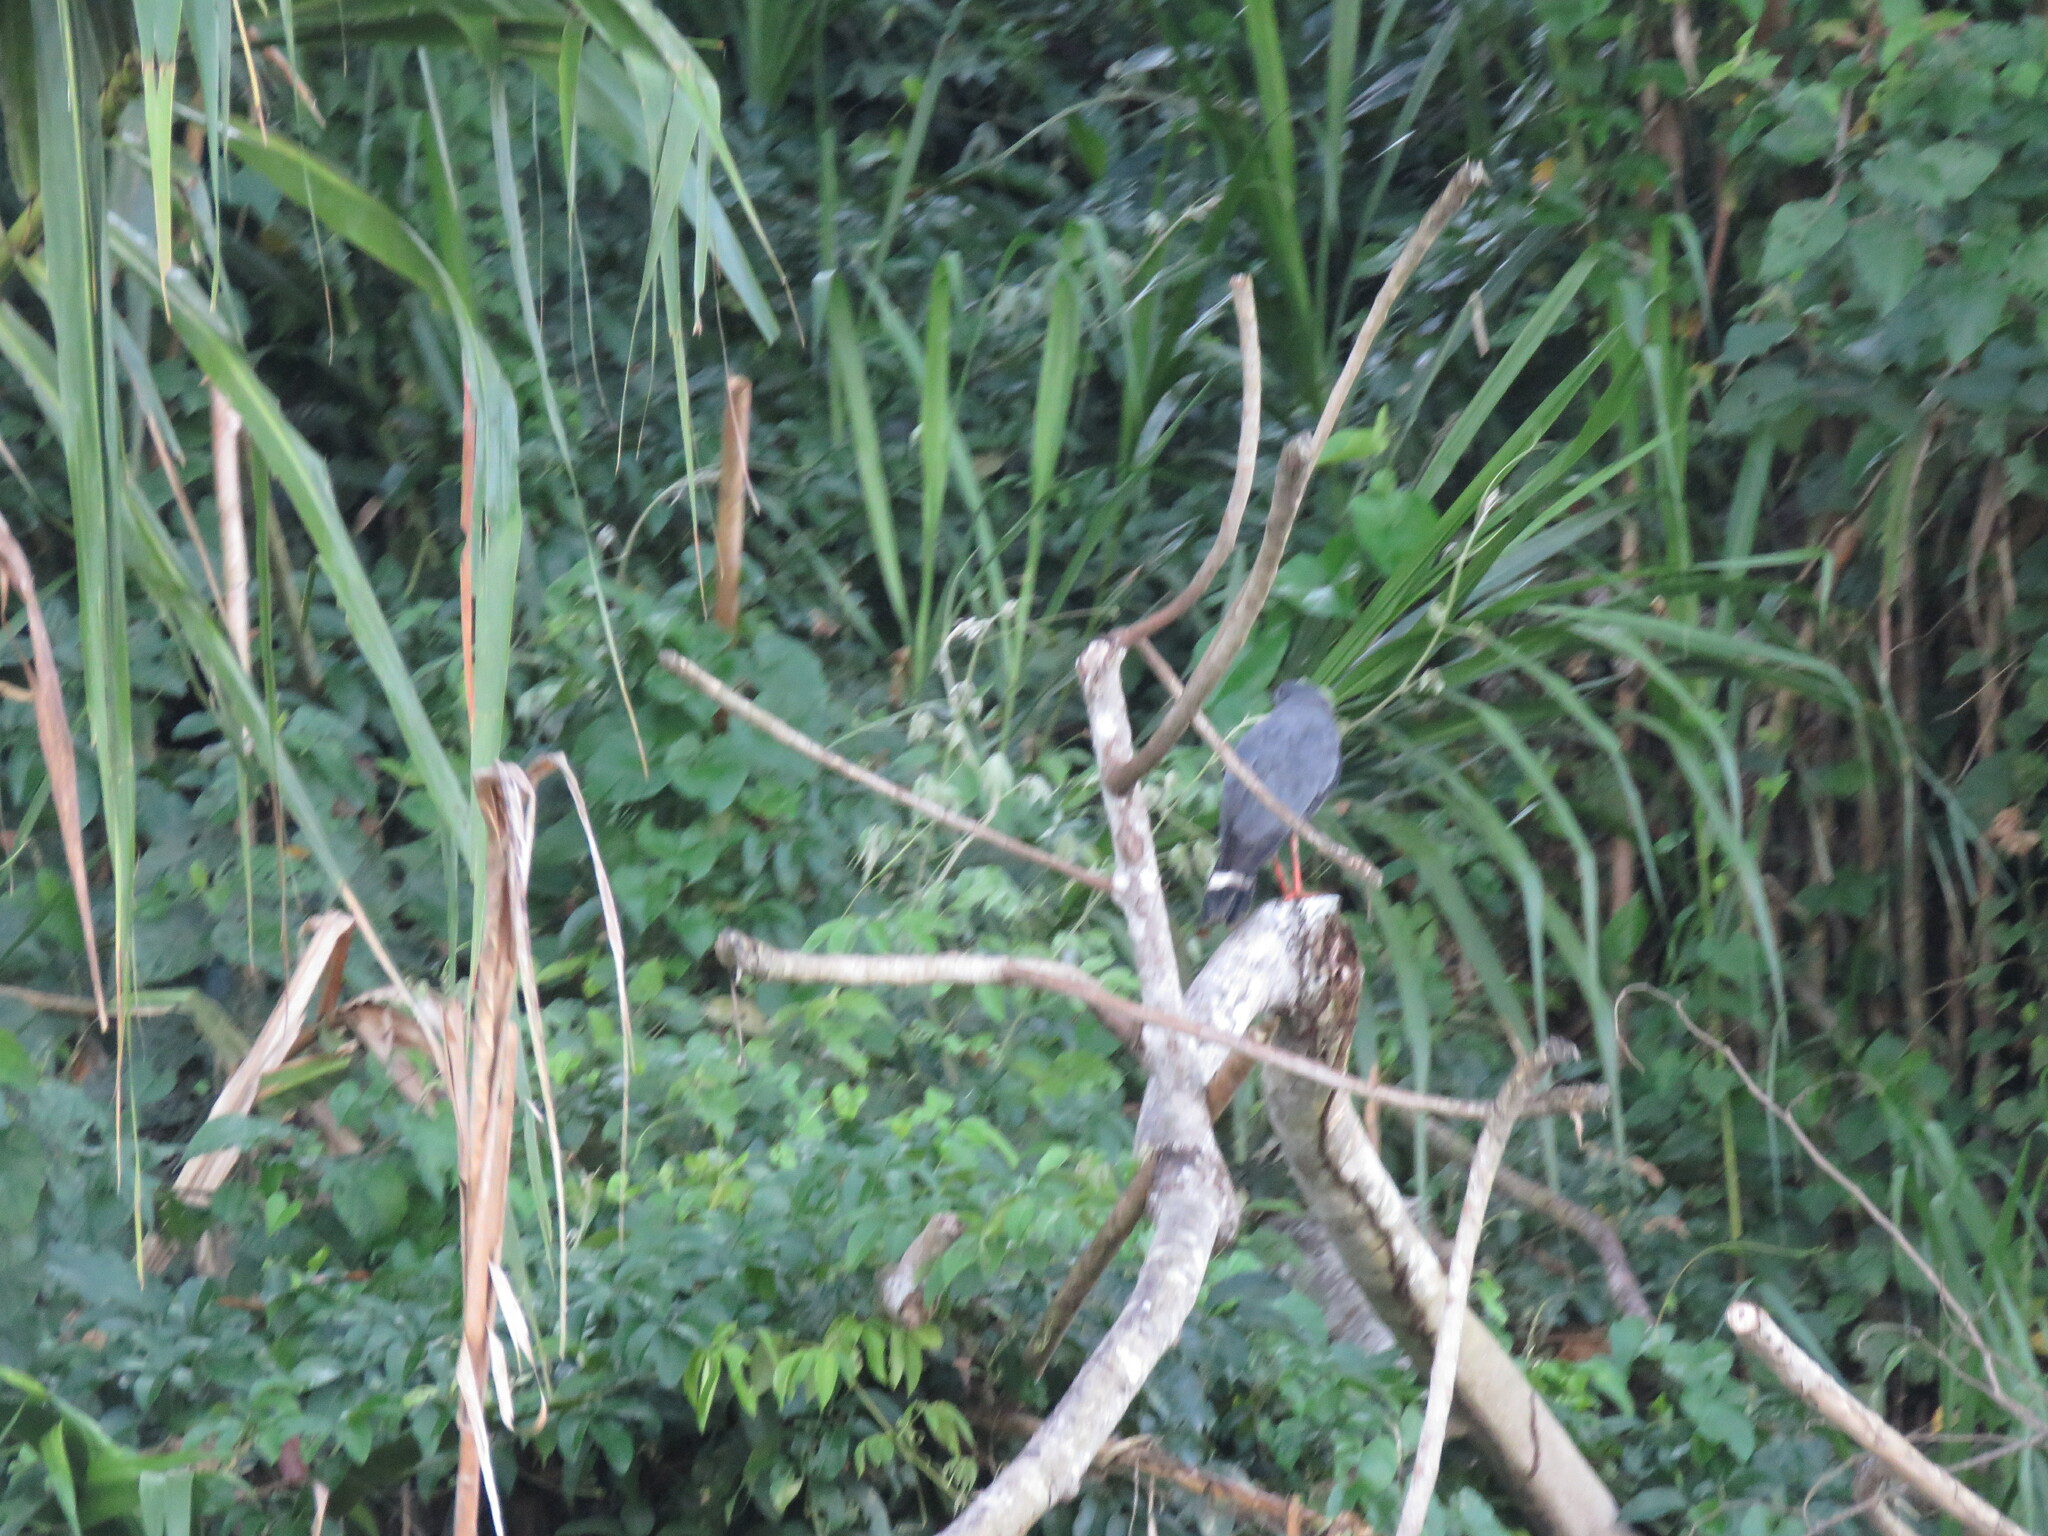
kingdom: Animalia
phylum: Chordata
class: Aves
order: Accipitriformes
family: Accipitridae
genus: Geranospiza
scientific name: Geranospiza caerulescens
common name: Crane hawk
